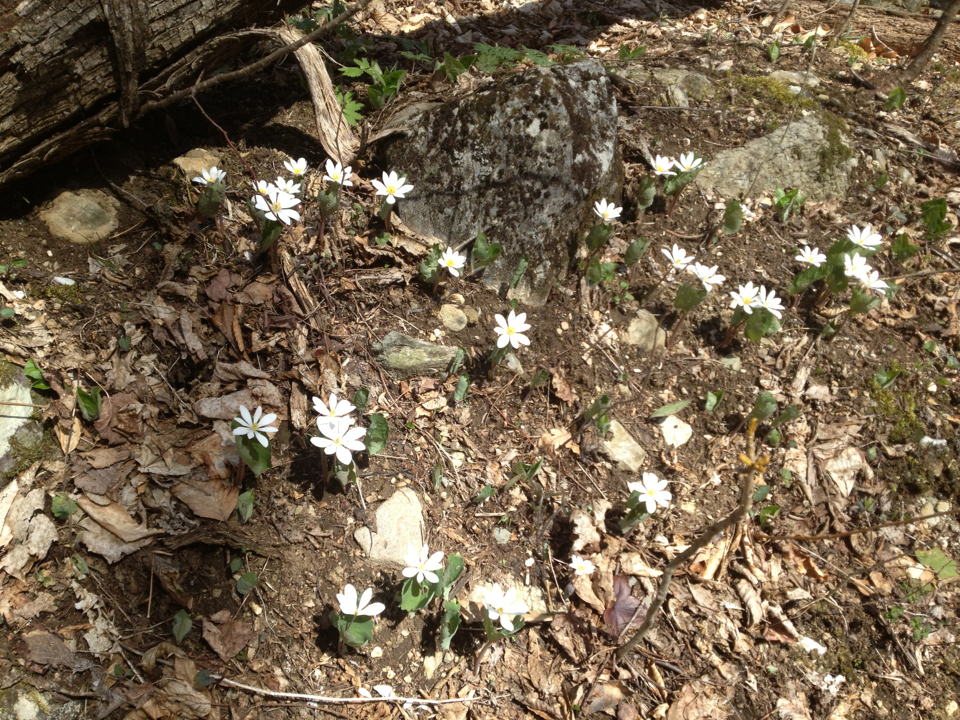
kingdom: Plantae
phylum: Tracheophyta
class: Magnoliopsida
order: Ranunculales
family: Papaveraceae
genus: Sanguinaria
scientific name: Sanguinaria canadensis
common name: Bloodroot
